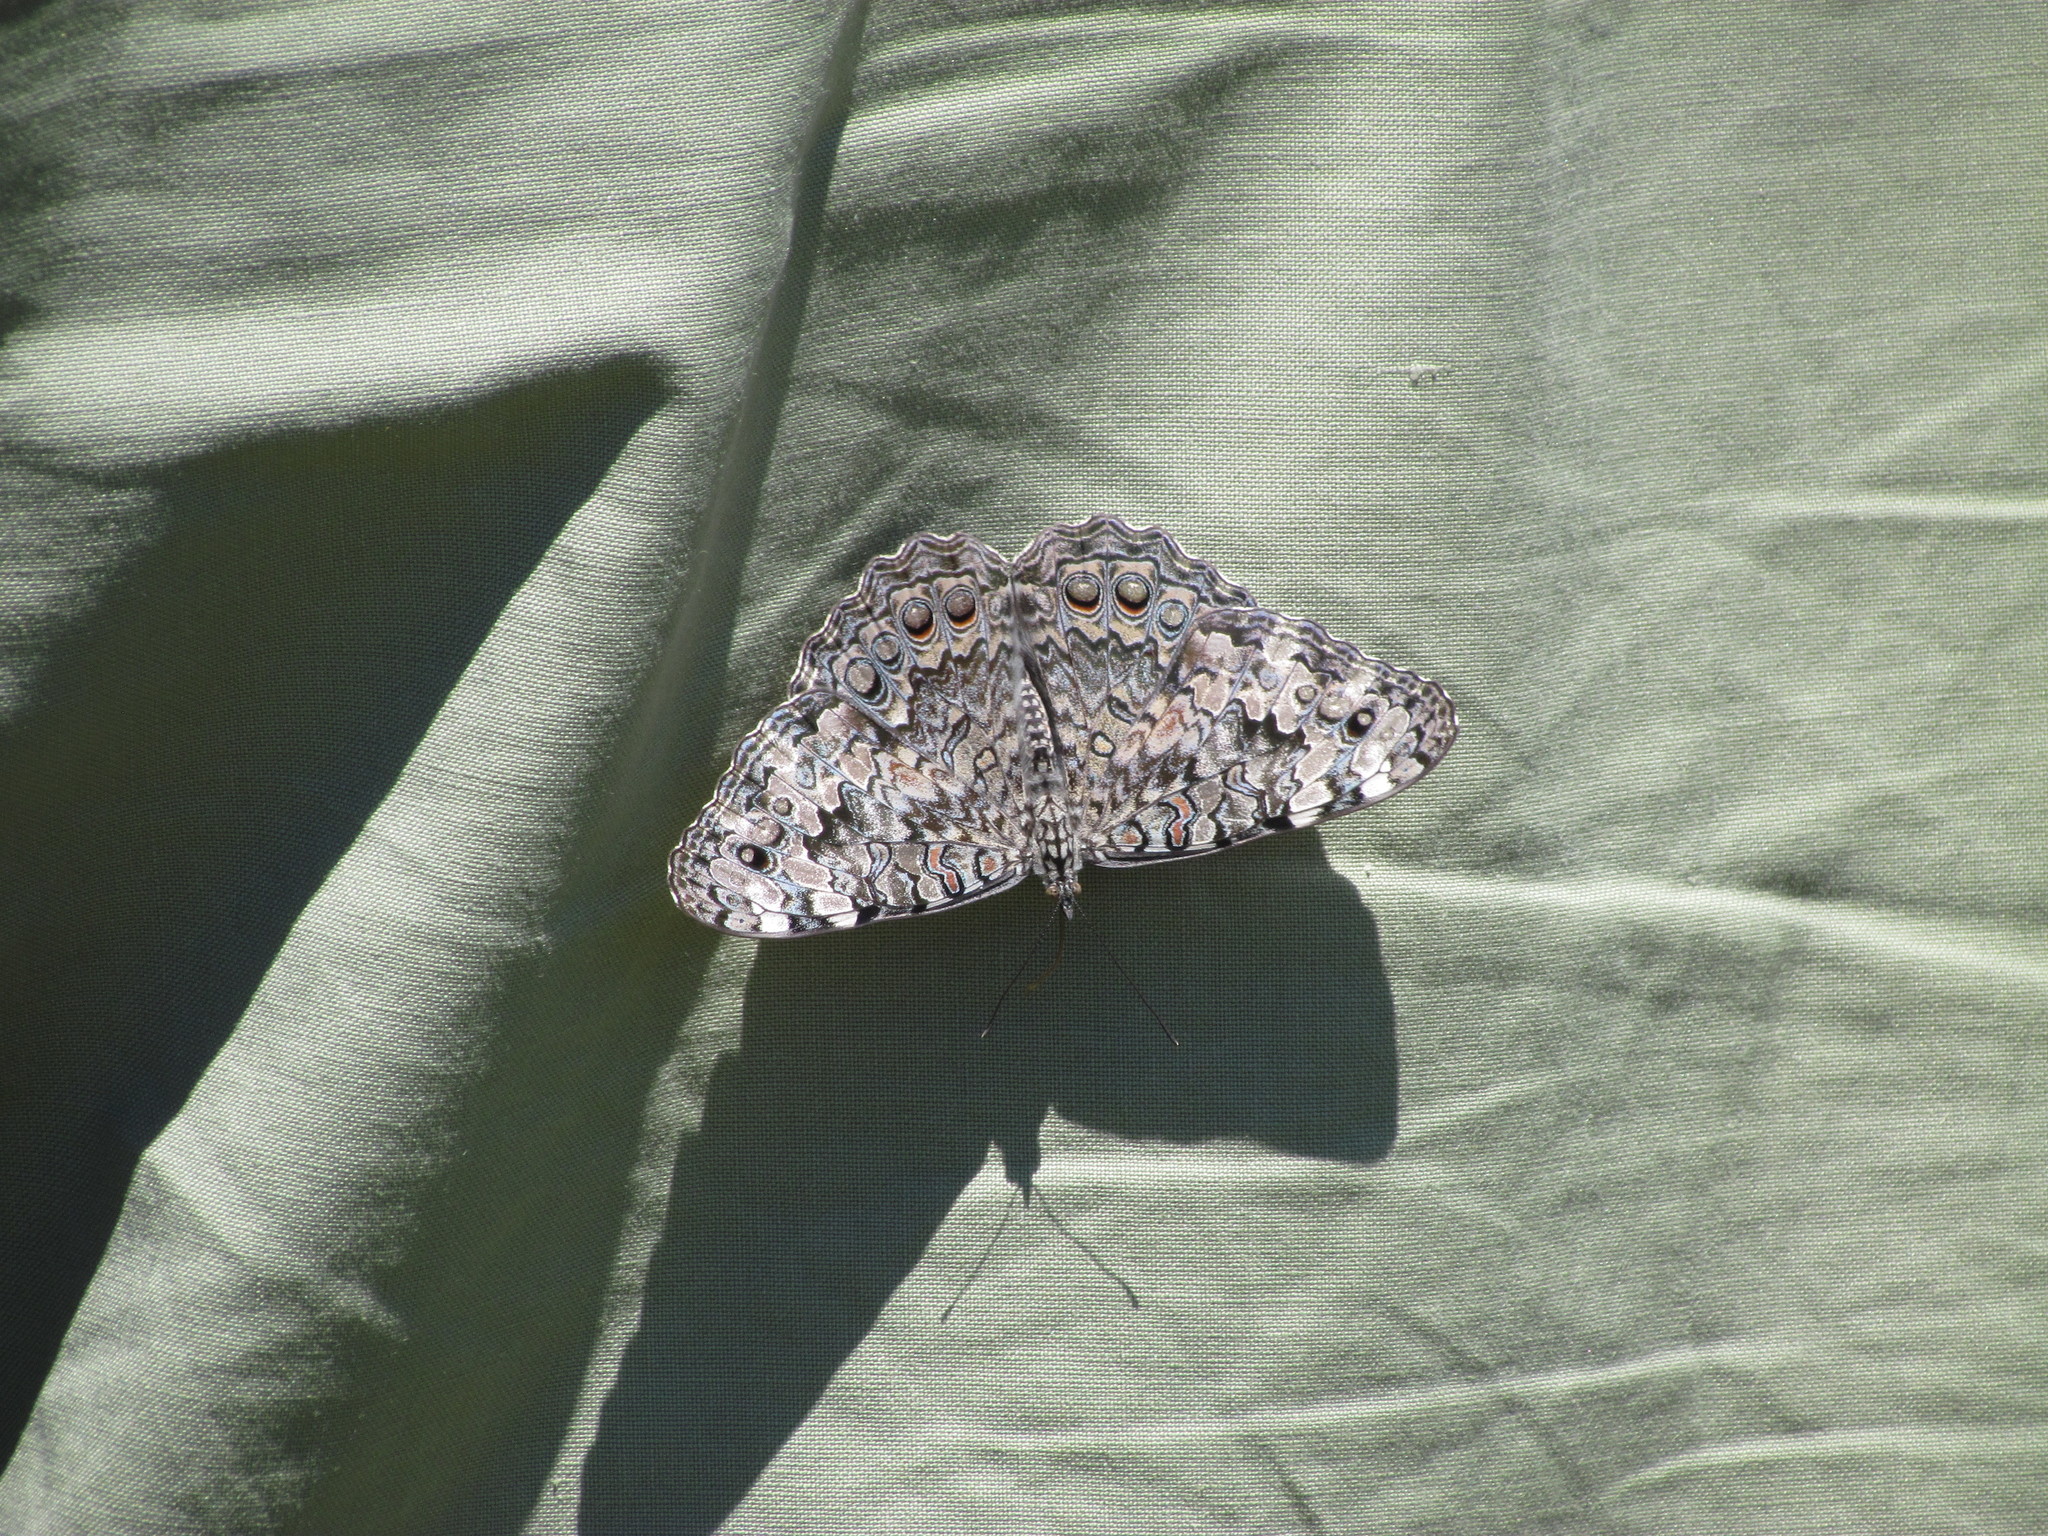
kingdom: Animalia
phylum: Arthropoda
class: Insecta
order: Lepidoptera
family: Nymphalidae
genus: Hamadryas
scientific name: Hamadryas februa
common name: Gray cracker
